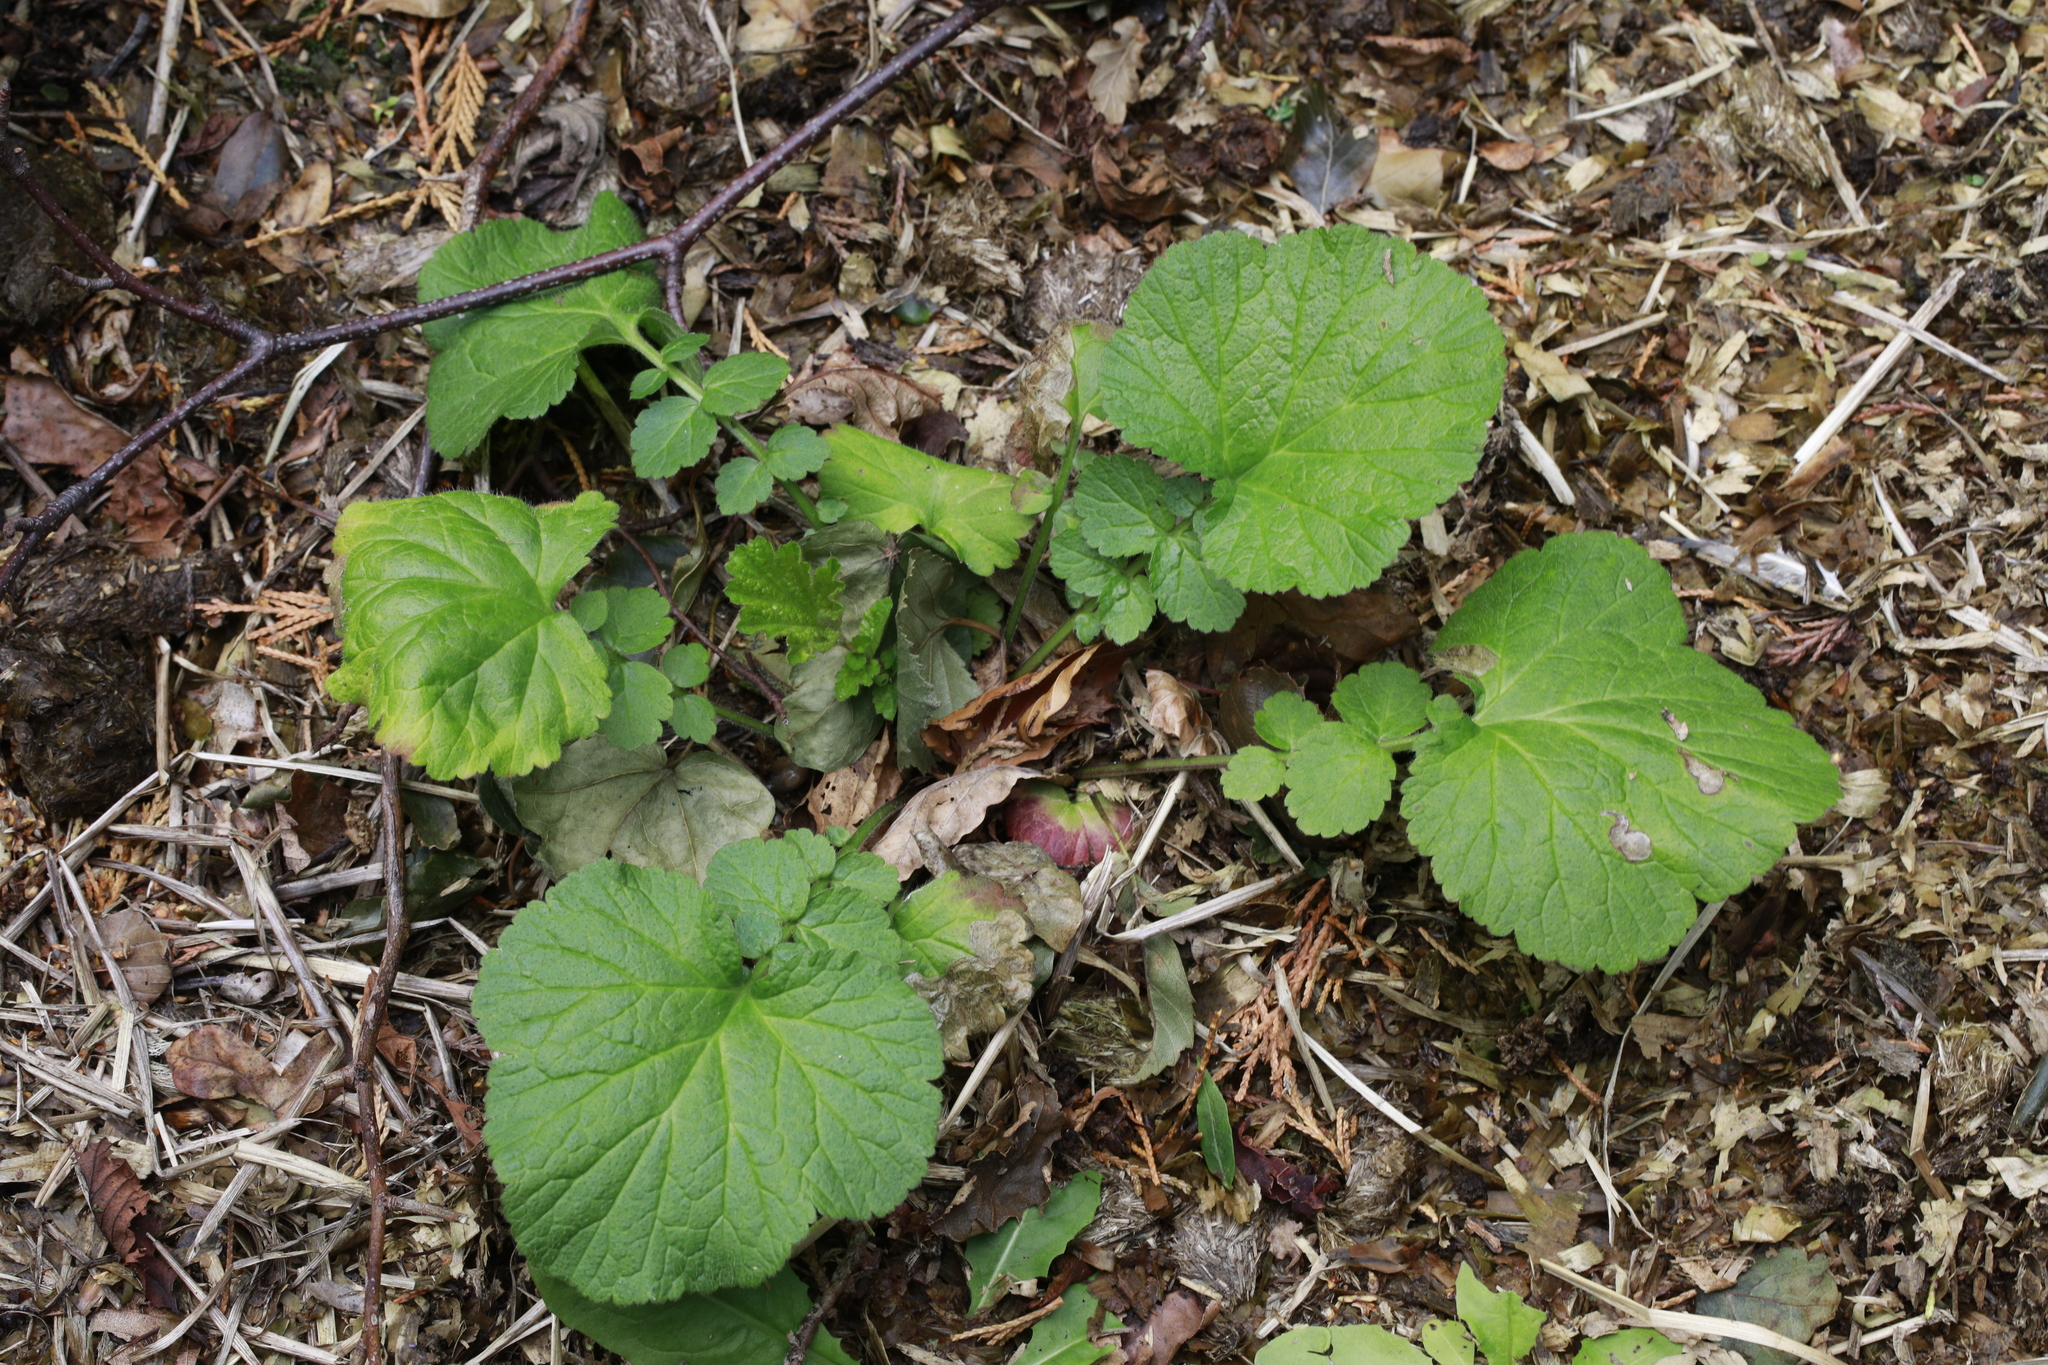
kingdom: Plantae
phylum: Tracheophyta
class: Magnoliopsida
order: Rosales
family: Rosaceae
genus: Geum
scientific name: Geum urbanum
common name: Wood avens
